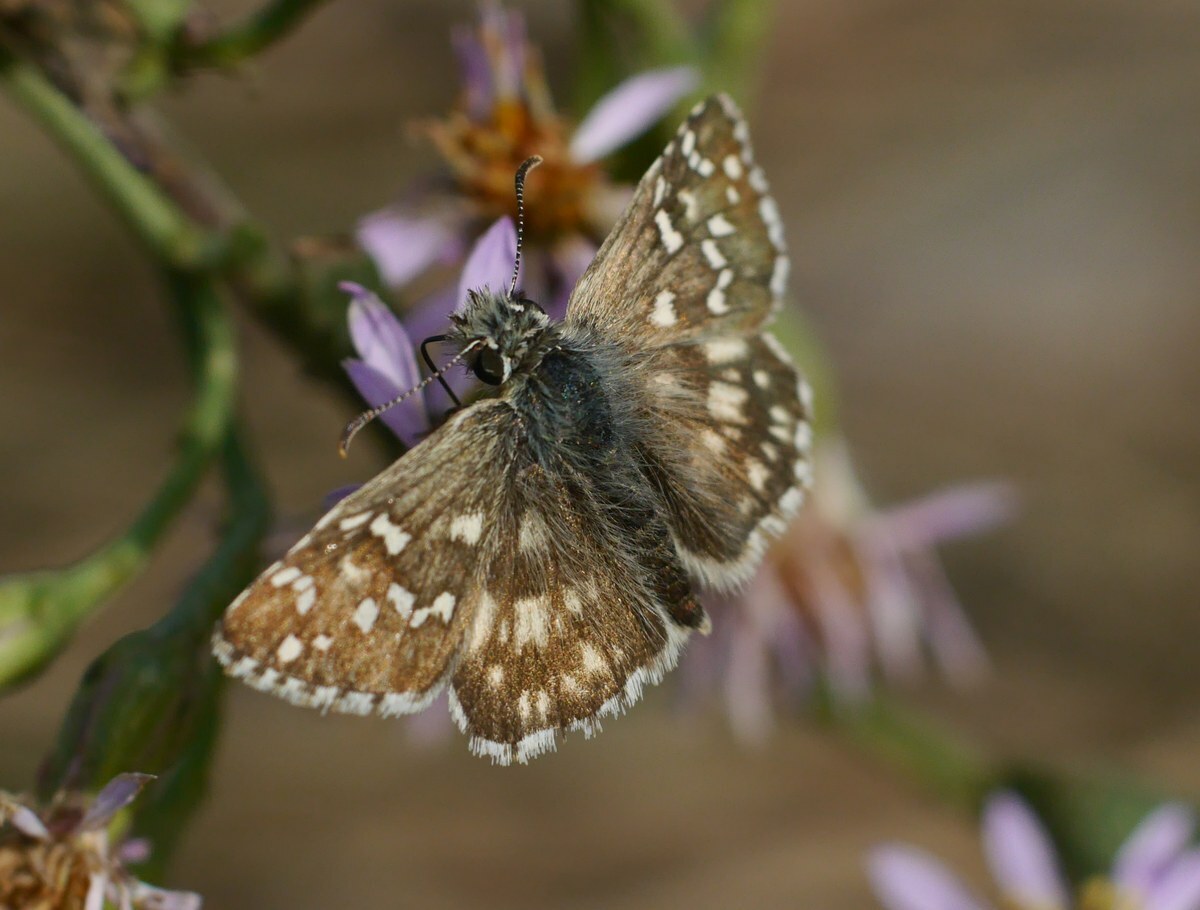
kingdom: Animalia
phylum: Arthropoda
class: Insecta
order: Lepidoptera
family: Hesperiidae
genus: Pyrgus
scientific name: Pyrgus armoricanus
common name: Oberthür's grizzled skipper
